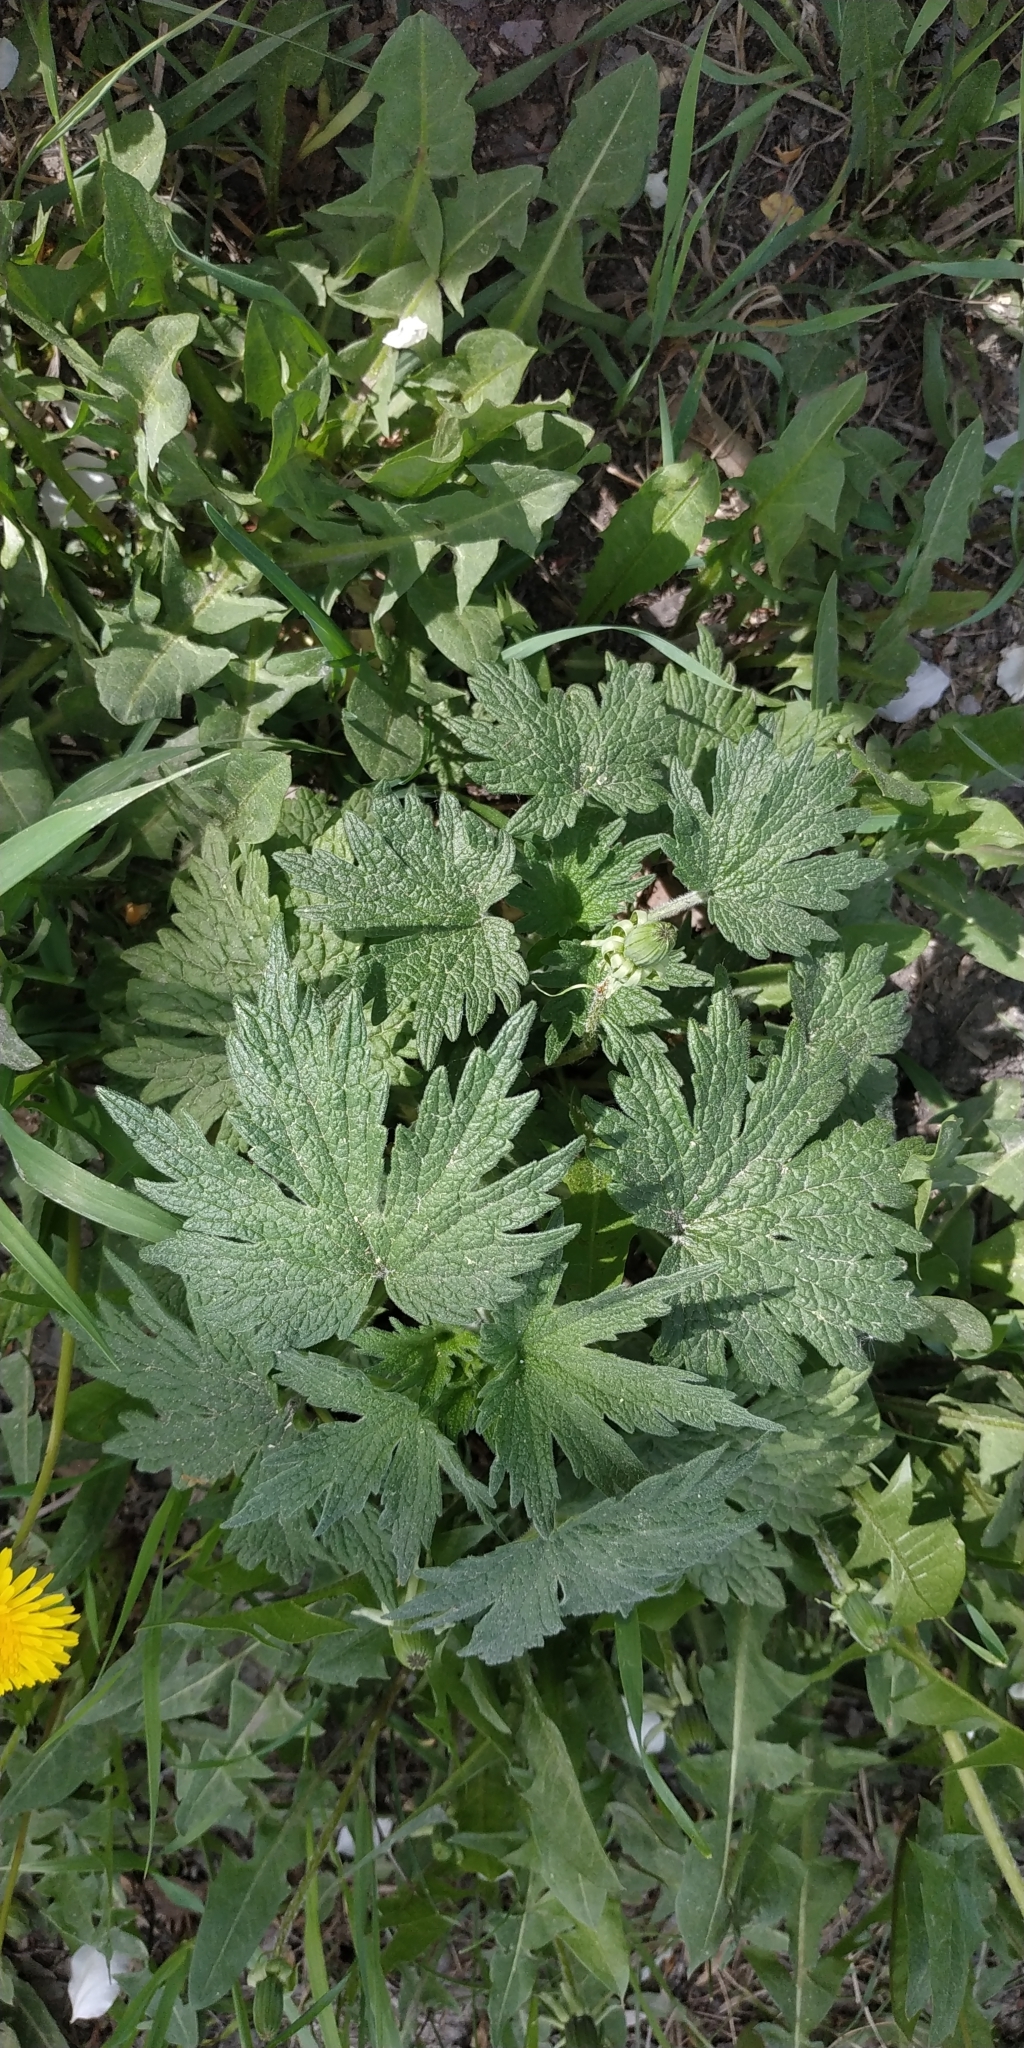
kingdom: Plantae
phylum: Tracheophyta
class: Magnoliopsida
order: Lamiales
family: Lamiaceae
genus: Leonurus
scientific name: Leonurus quinquelobatus
